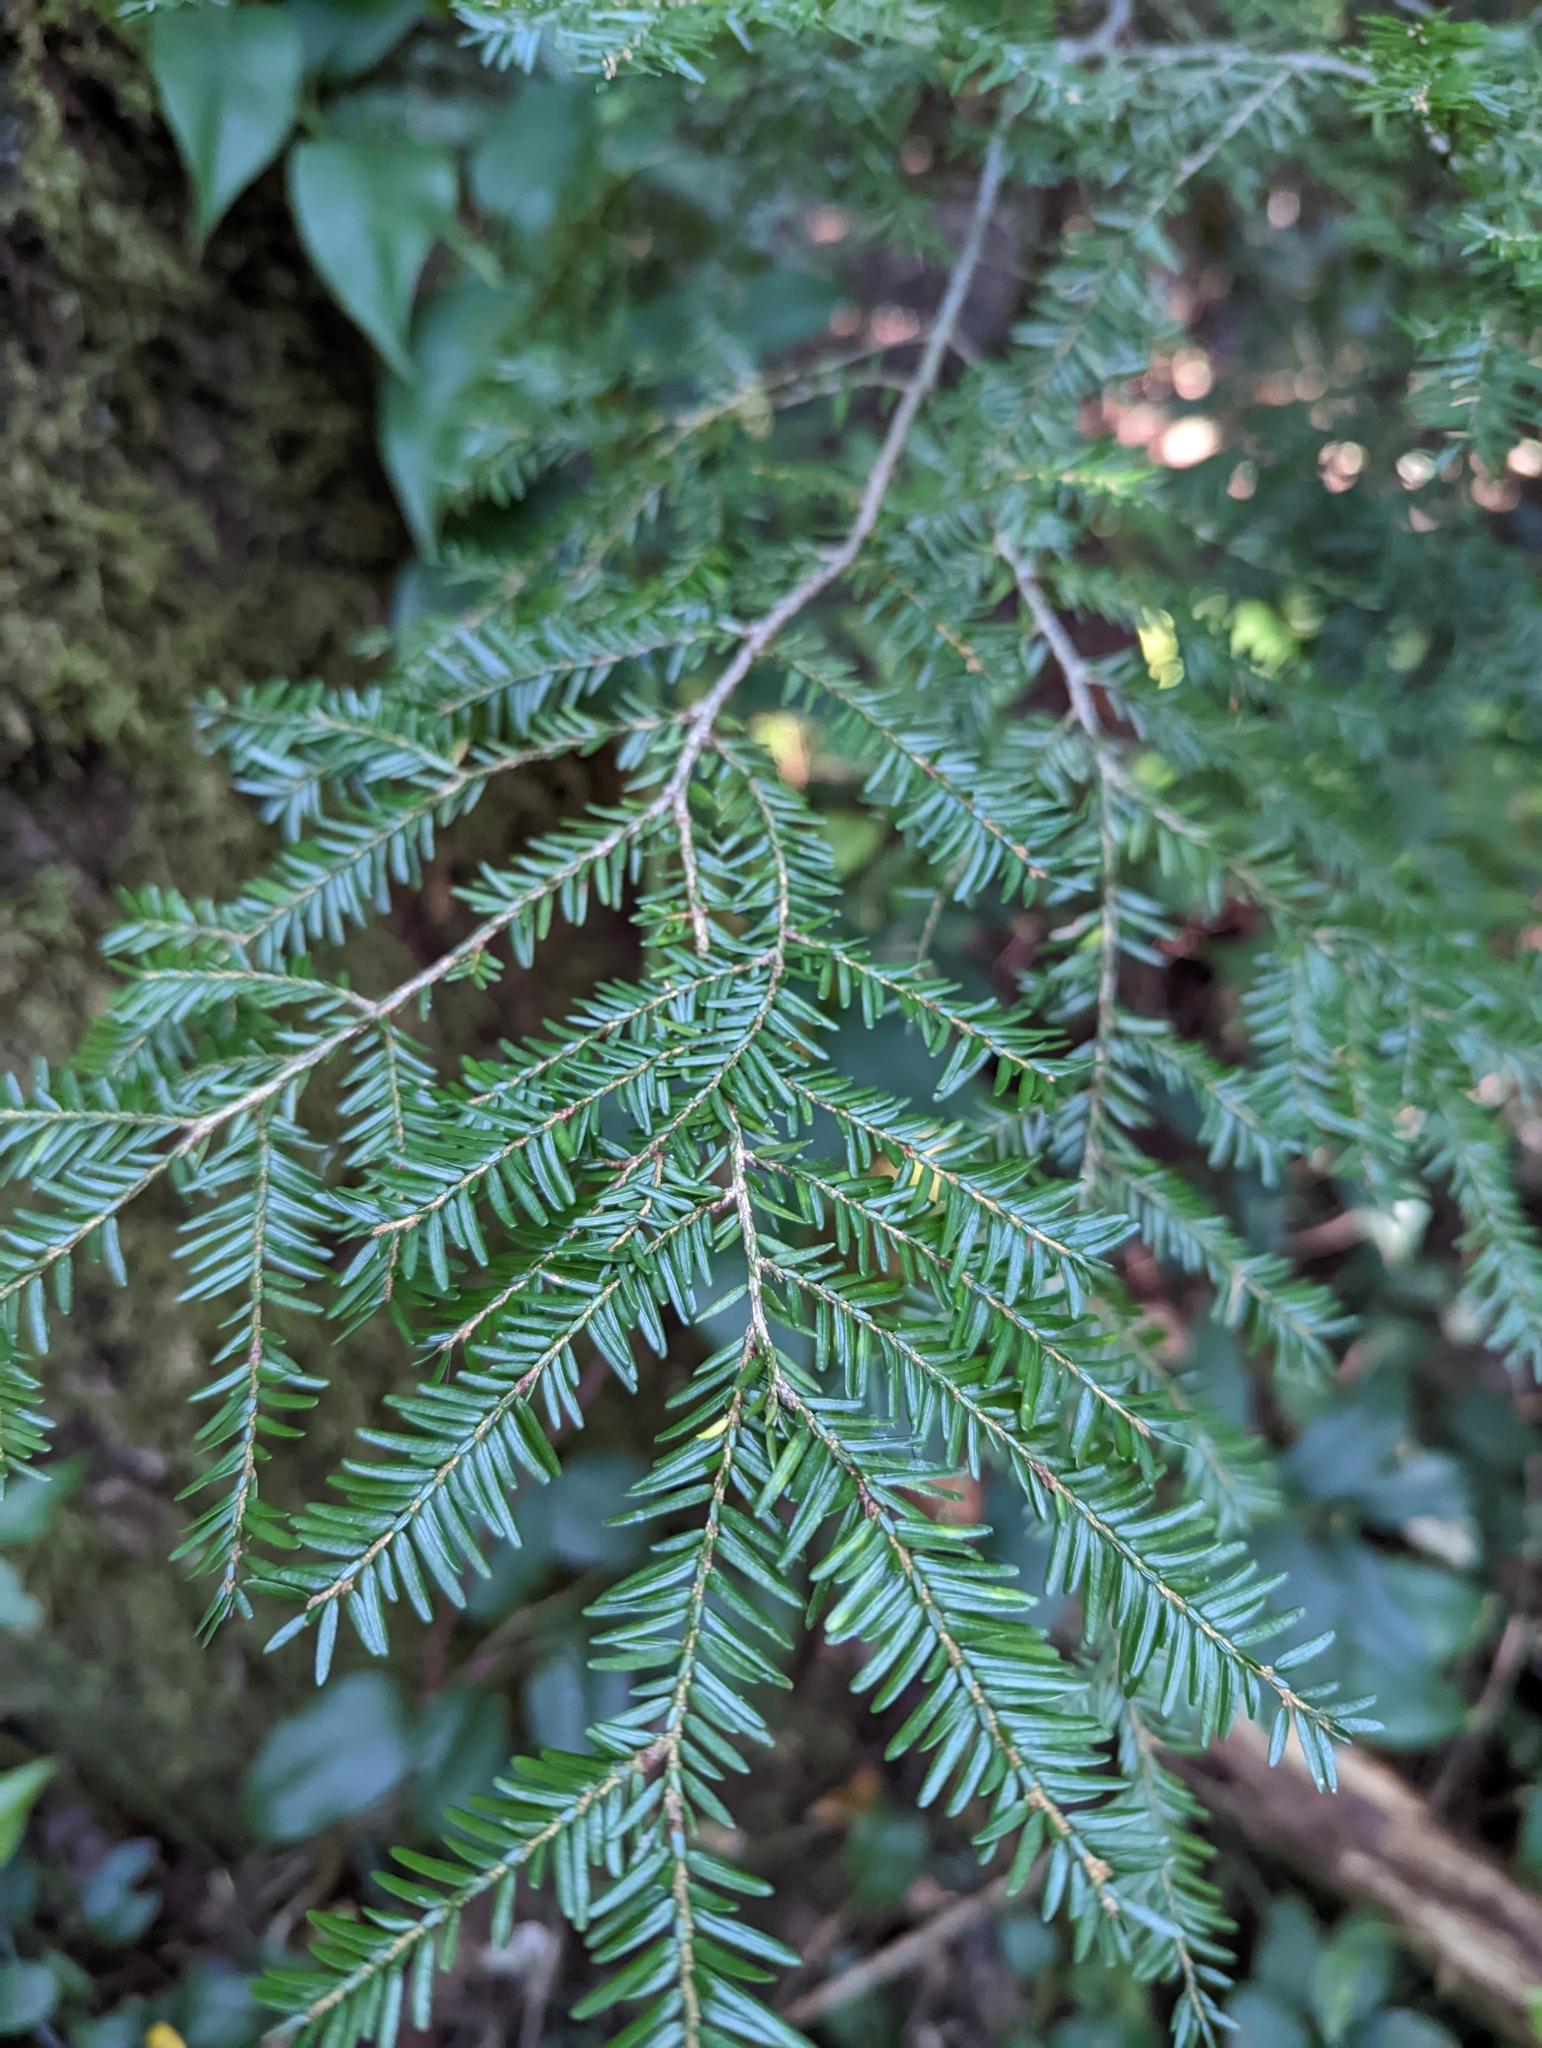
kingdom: Plantae
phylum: Tracheophyta
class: Pinopsida
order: Pinales
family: Pinaceae
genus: Tsuga
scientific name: Tsuga canadensis
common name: Eastern hemlock
